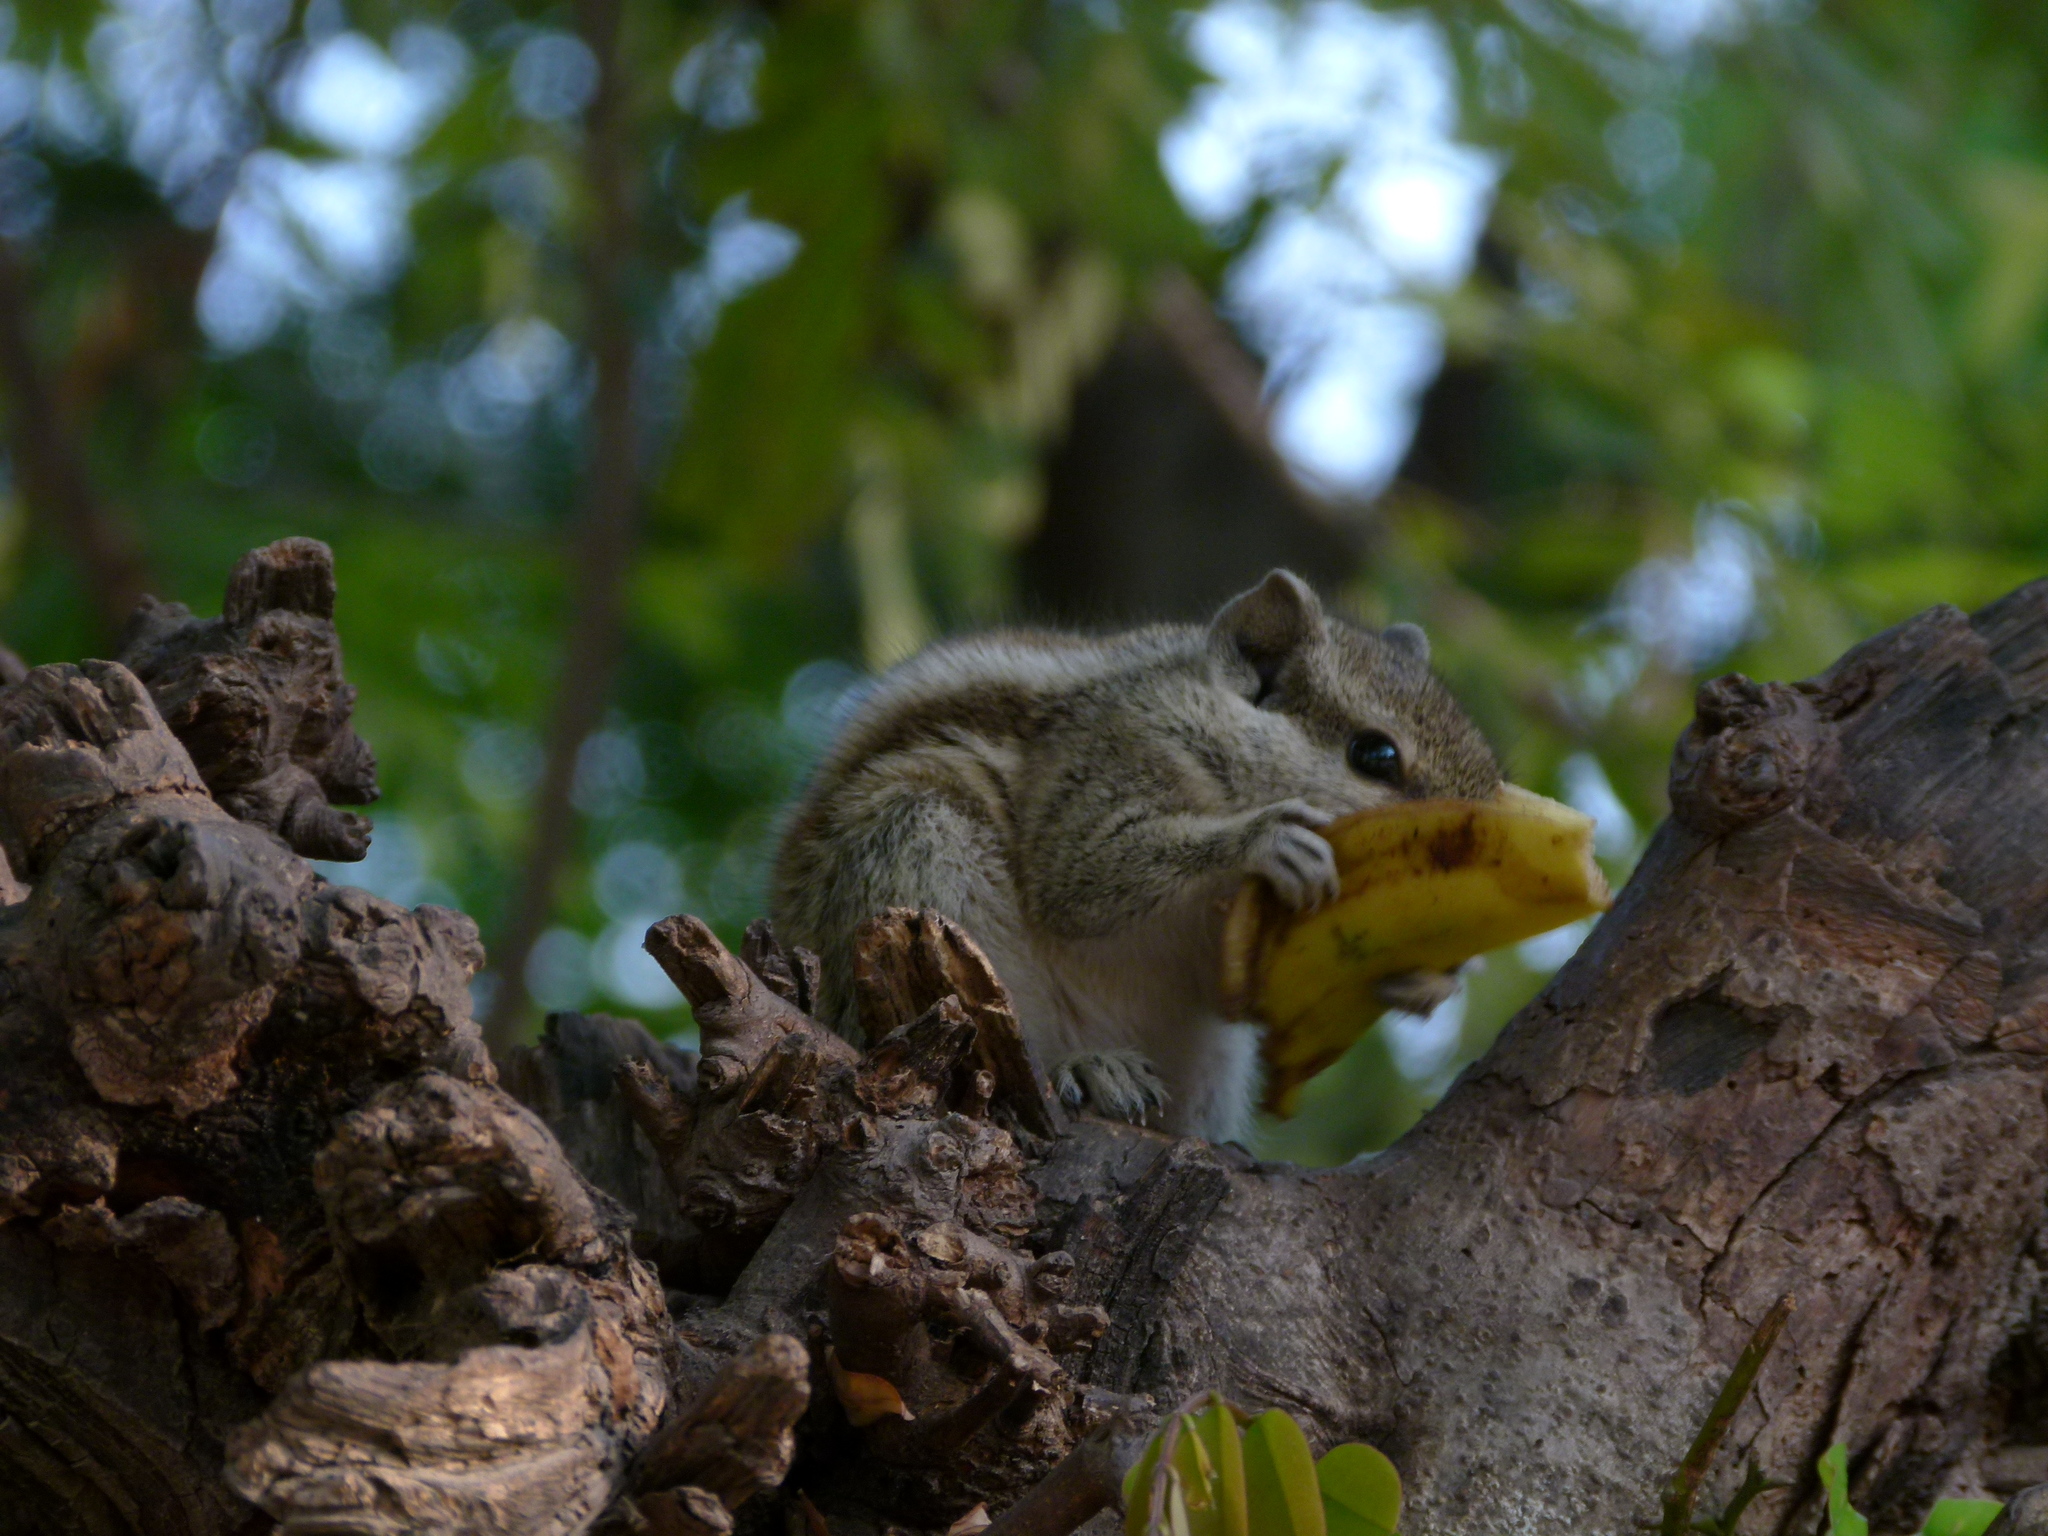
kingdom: Animalia
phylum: Chordata
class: Mammalia
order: Rodentia
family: Sciuridae
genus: Funambulus
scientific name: Funambulus pennantii
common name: Northern palm squirrel
